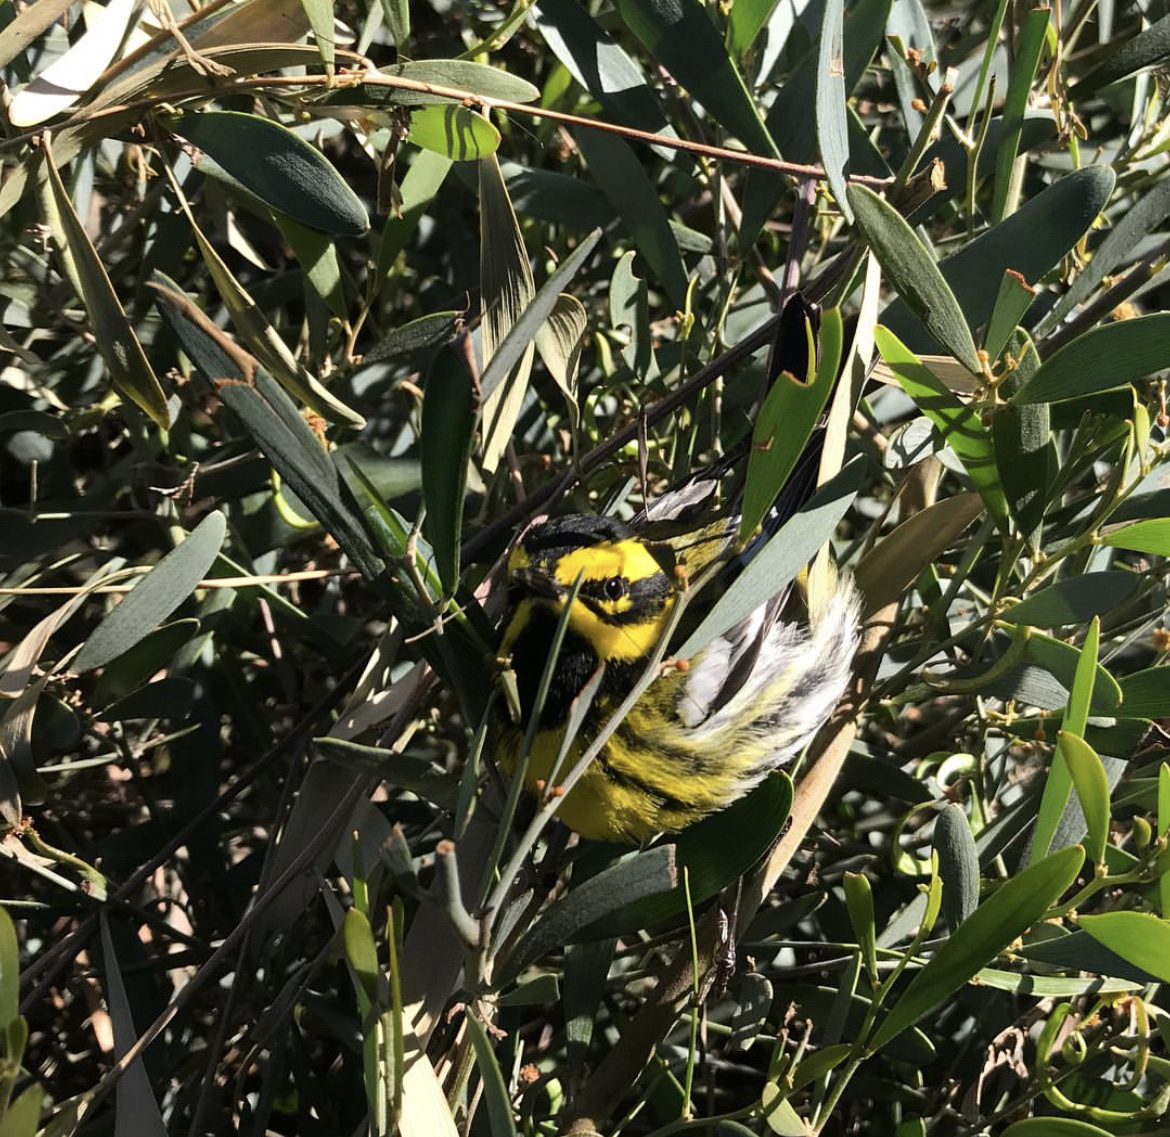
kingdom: Animalia
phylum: Chordata
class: Aves
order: Passeriformes
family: Parulidae
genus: Setophaga
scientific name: Setophaga townsendi
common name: Townsend's warbler
